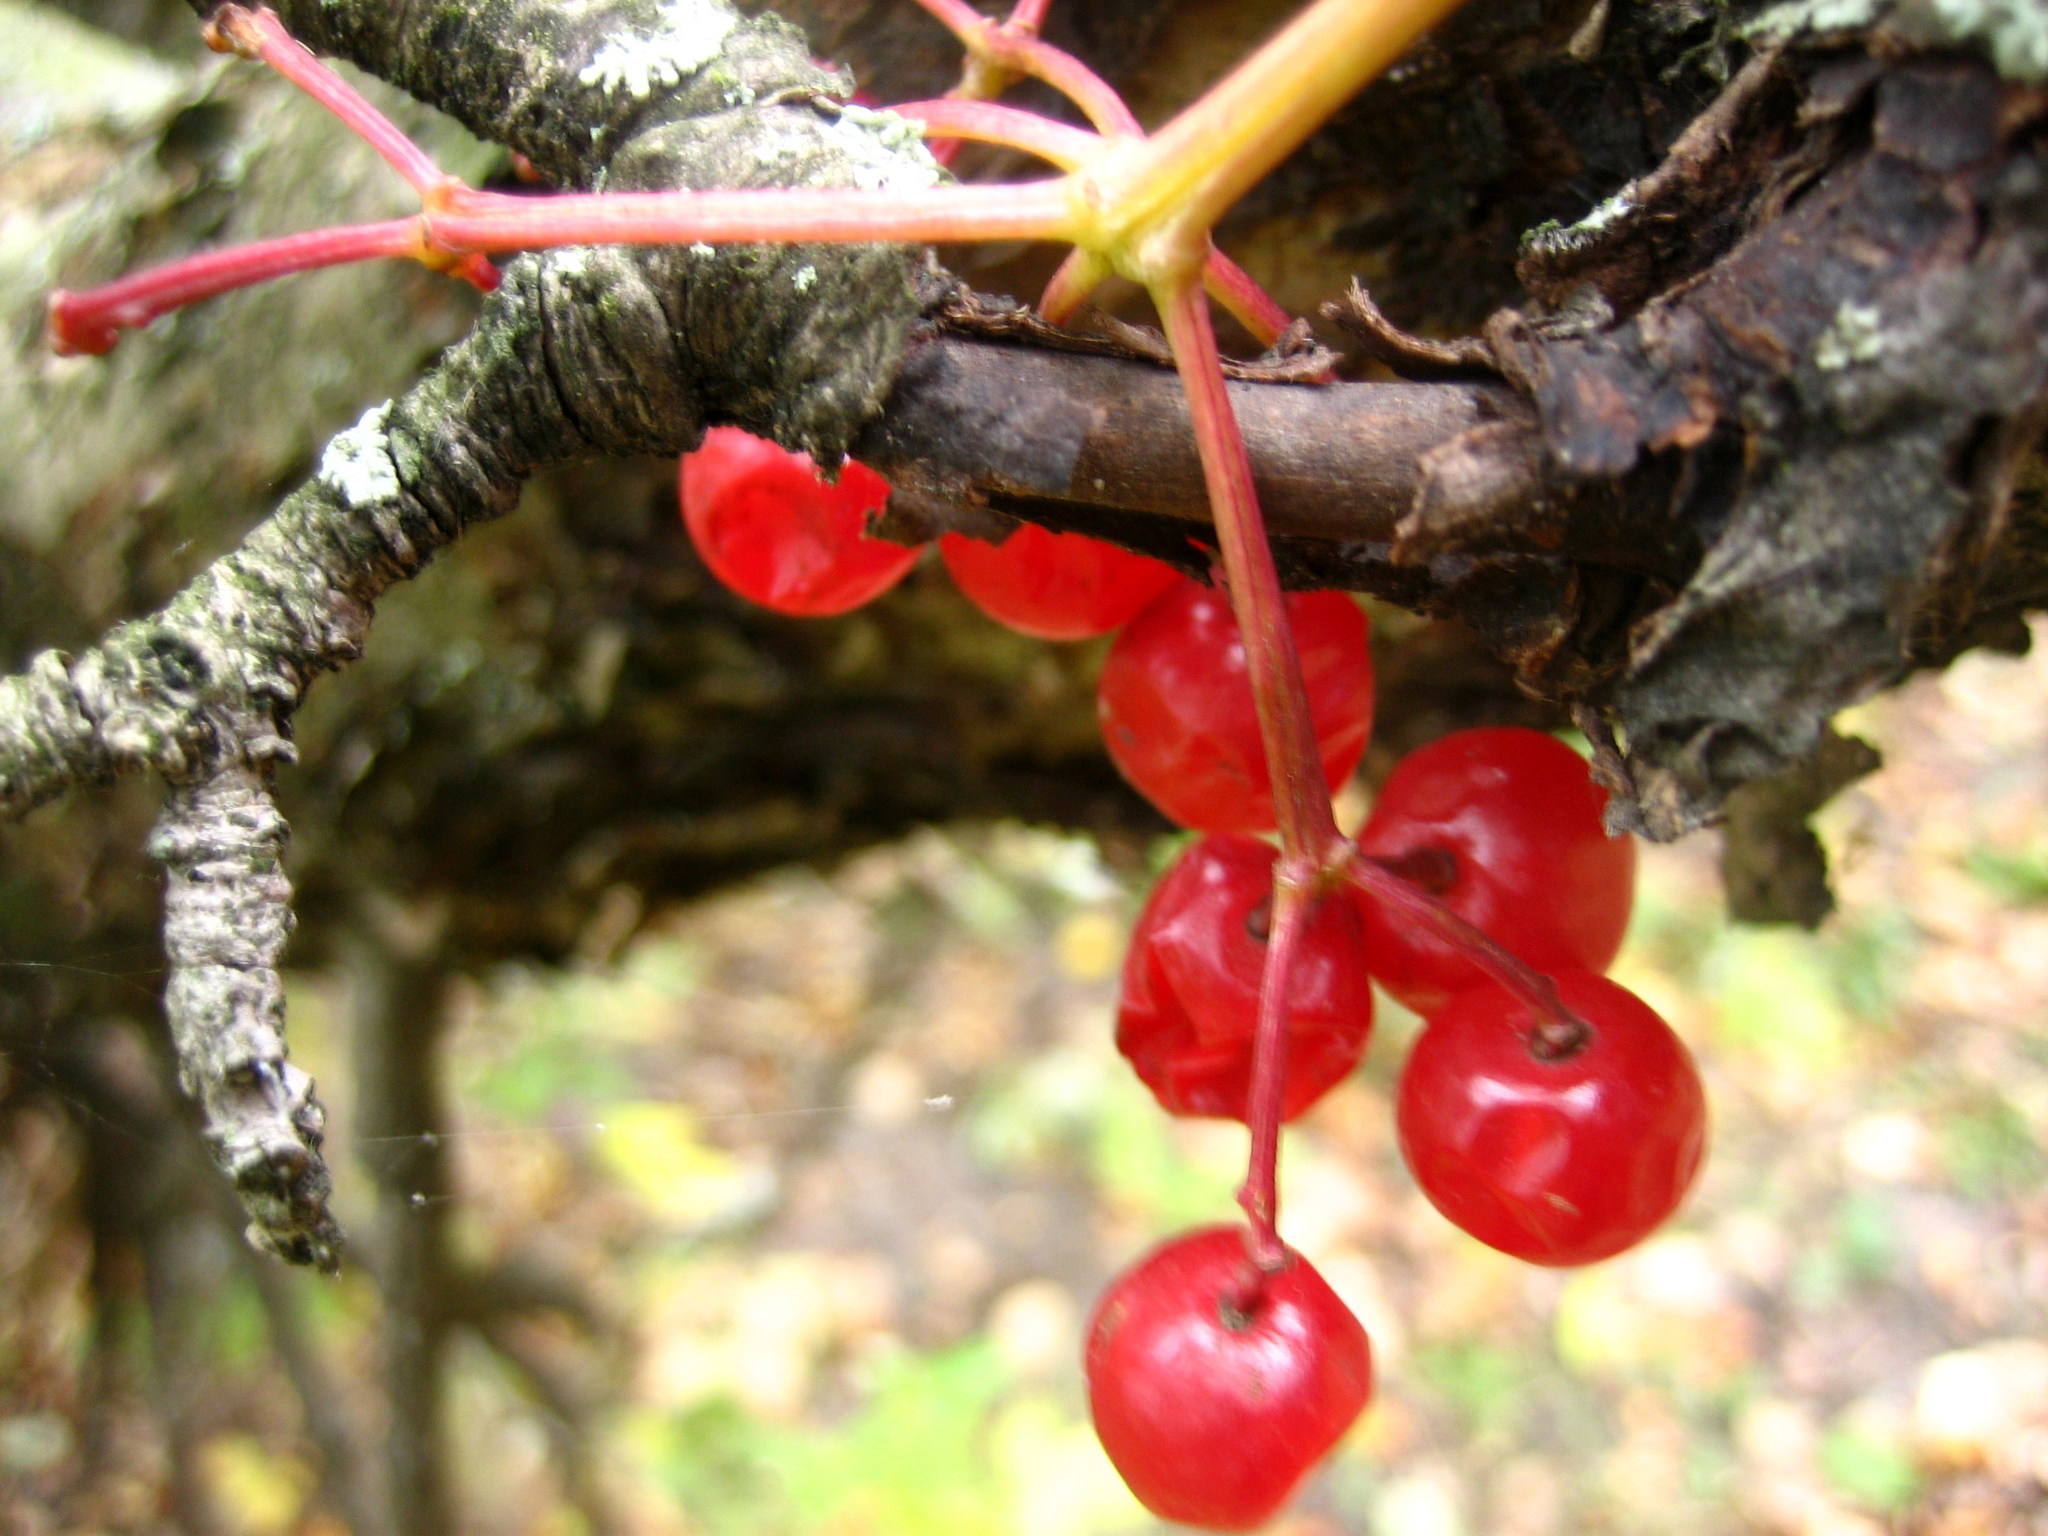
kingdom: Plantae
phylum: Tracheophyta
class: Magnoliopsida
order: Dipsacales
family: Viburnaceae
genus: Viburnum
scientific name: Viburnum opulus
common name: Guelder-rose
